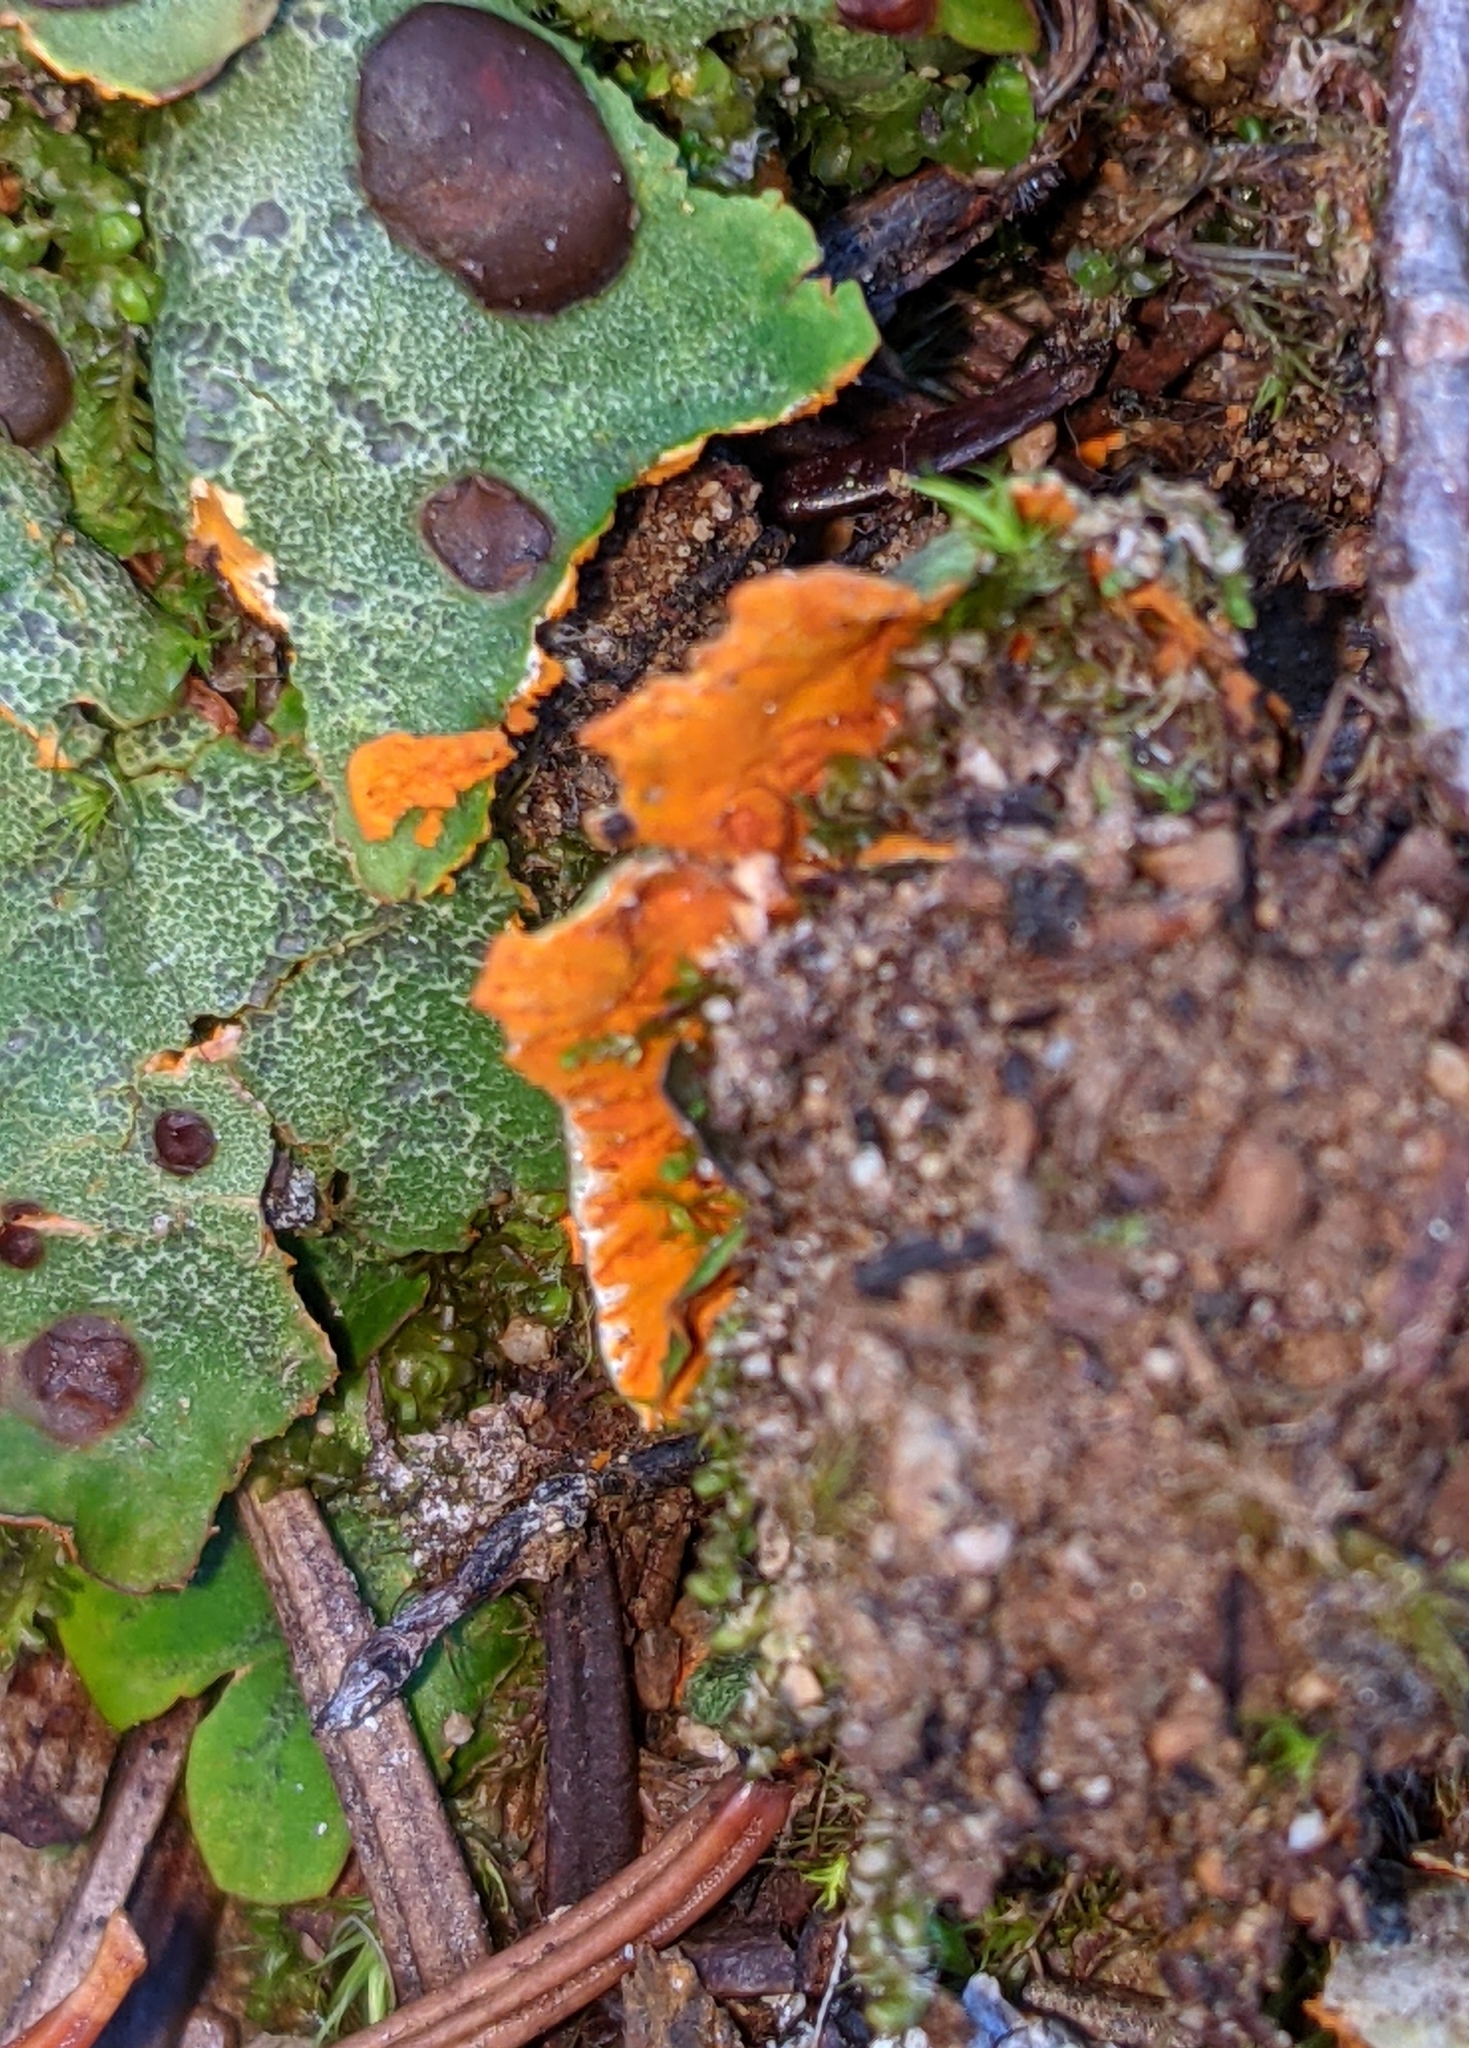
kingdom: Fungi
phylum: Ascomycota
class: Lecanoromycetes
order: Peltigerales
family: Peltigeraceae
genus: Solorina
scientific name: Solorina crocea
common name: Mountain saffron
